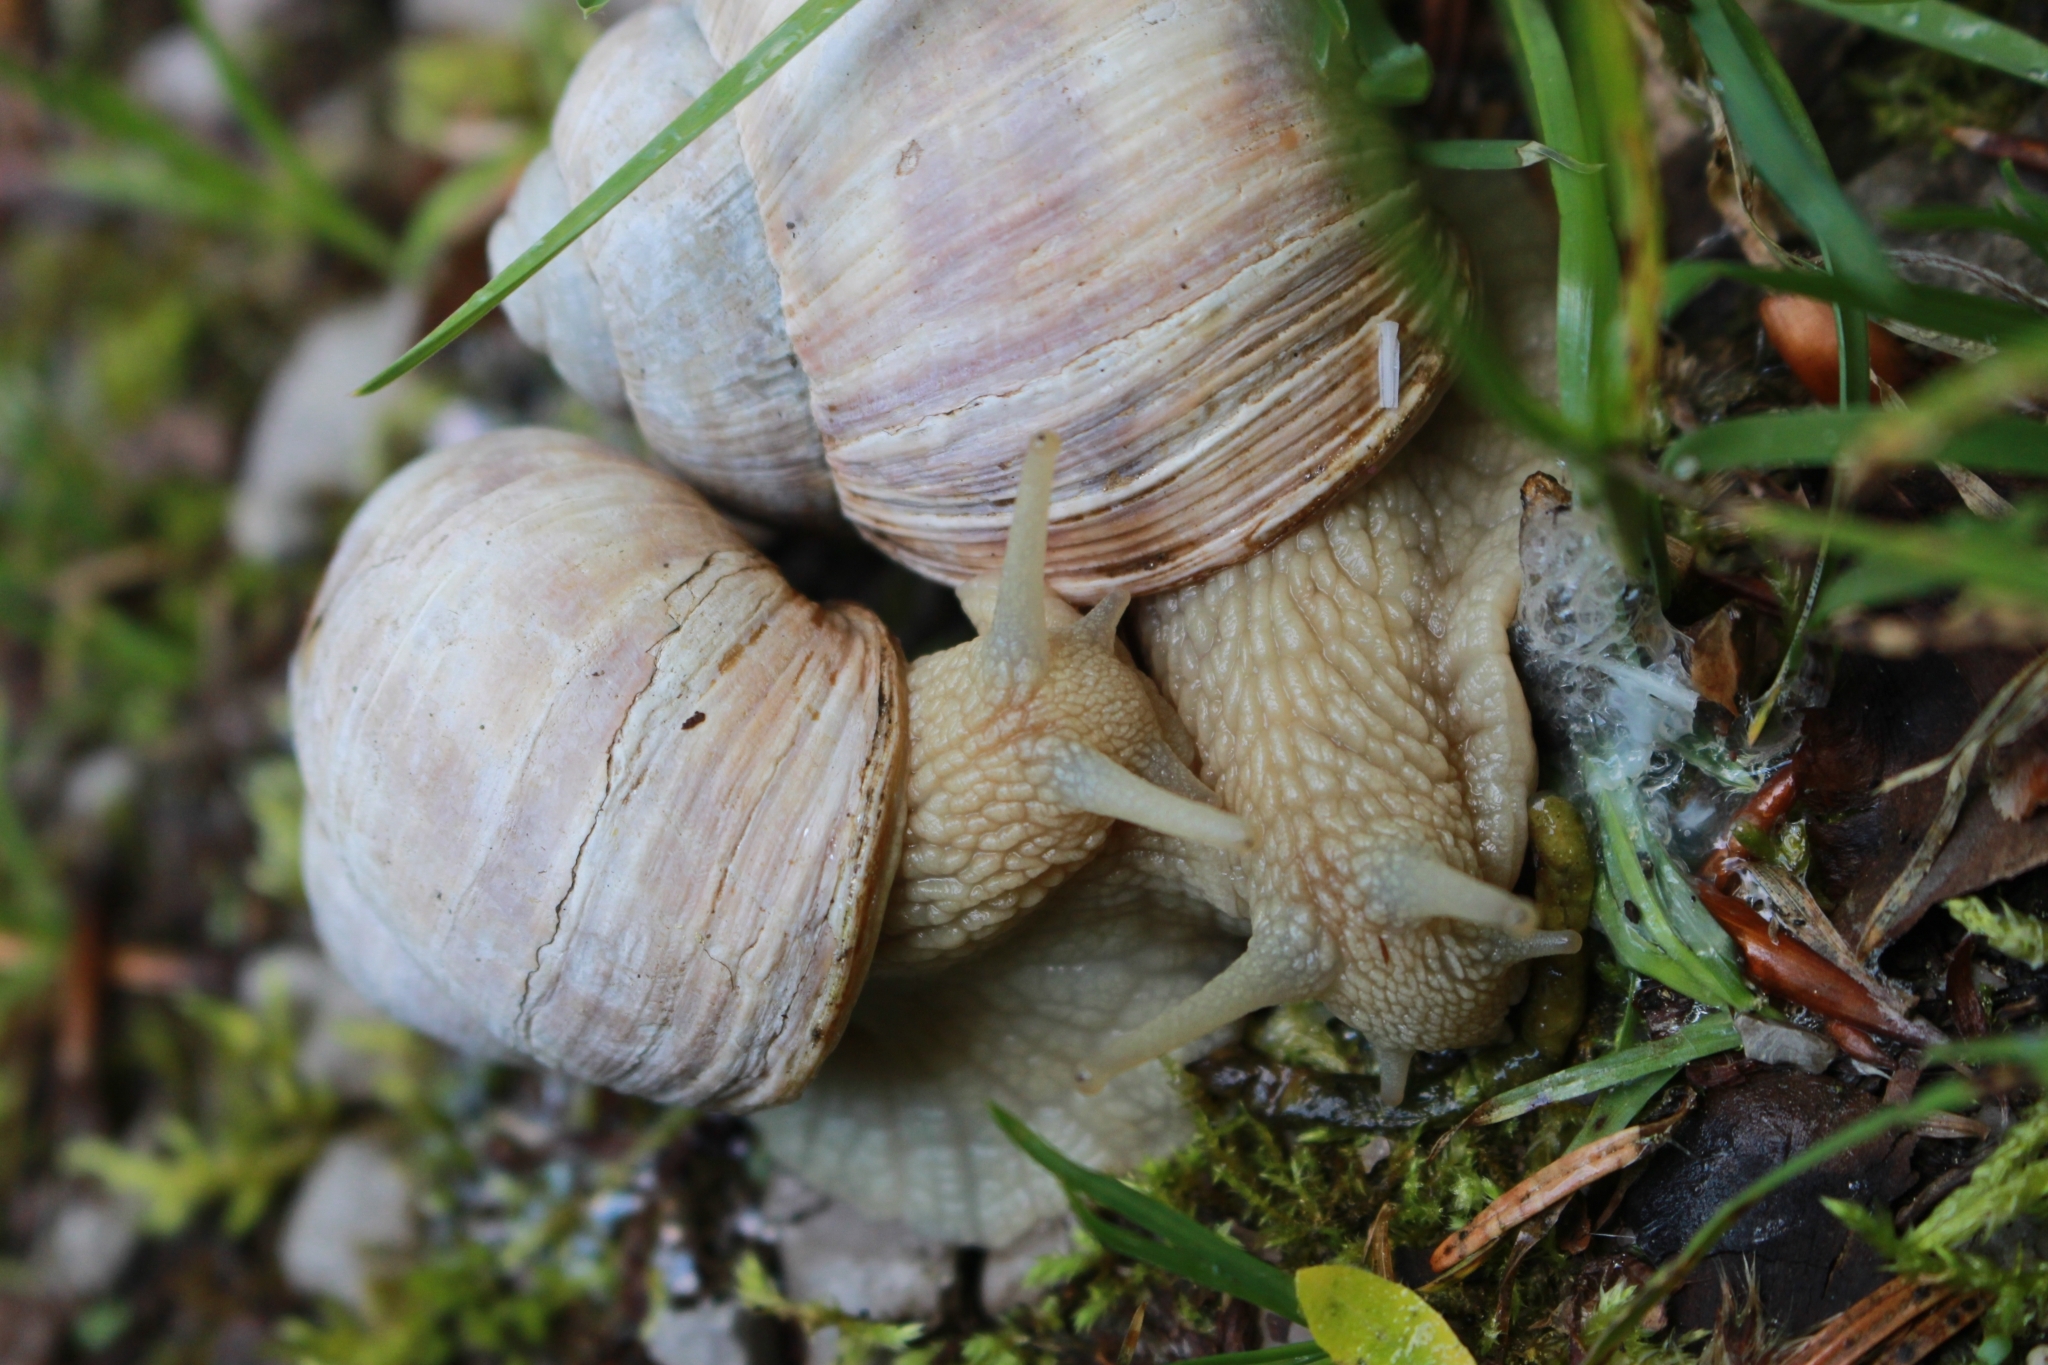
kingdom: Animalia
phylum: Mollusca
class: Gastropoda
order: Stylommatophora
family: Helicidae
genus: Helix
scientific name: Helix pomatia
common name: Roman snail
